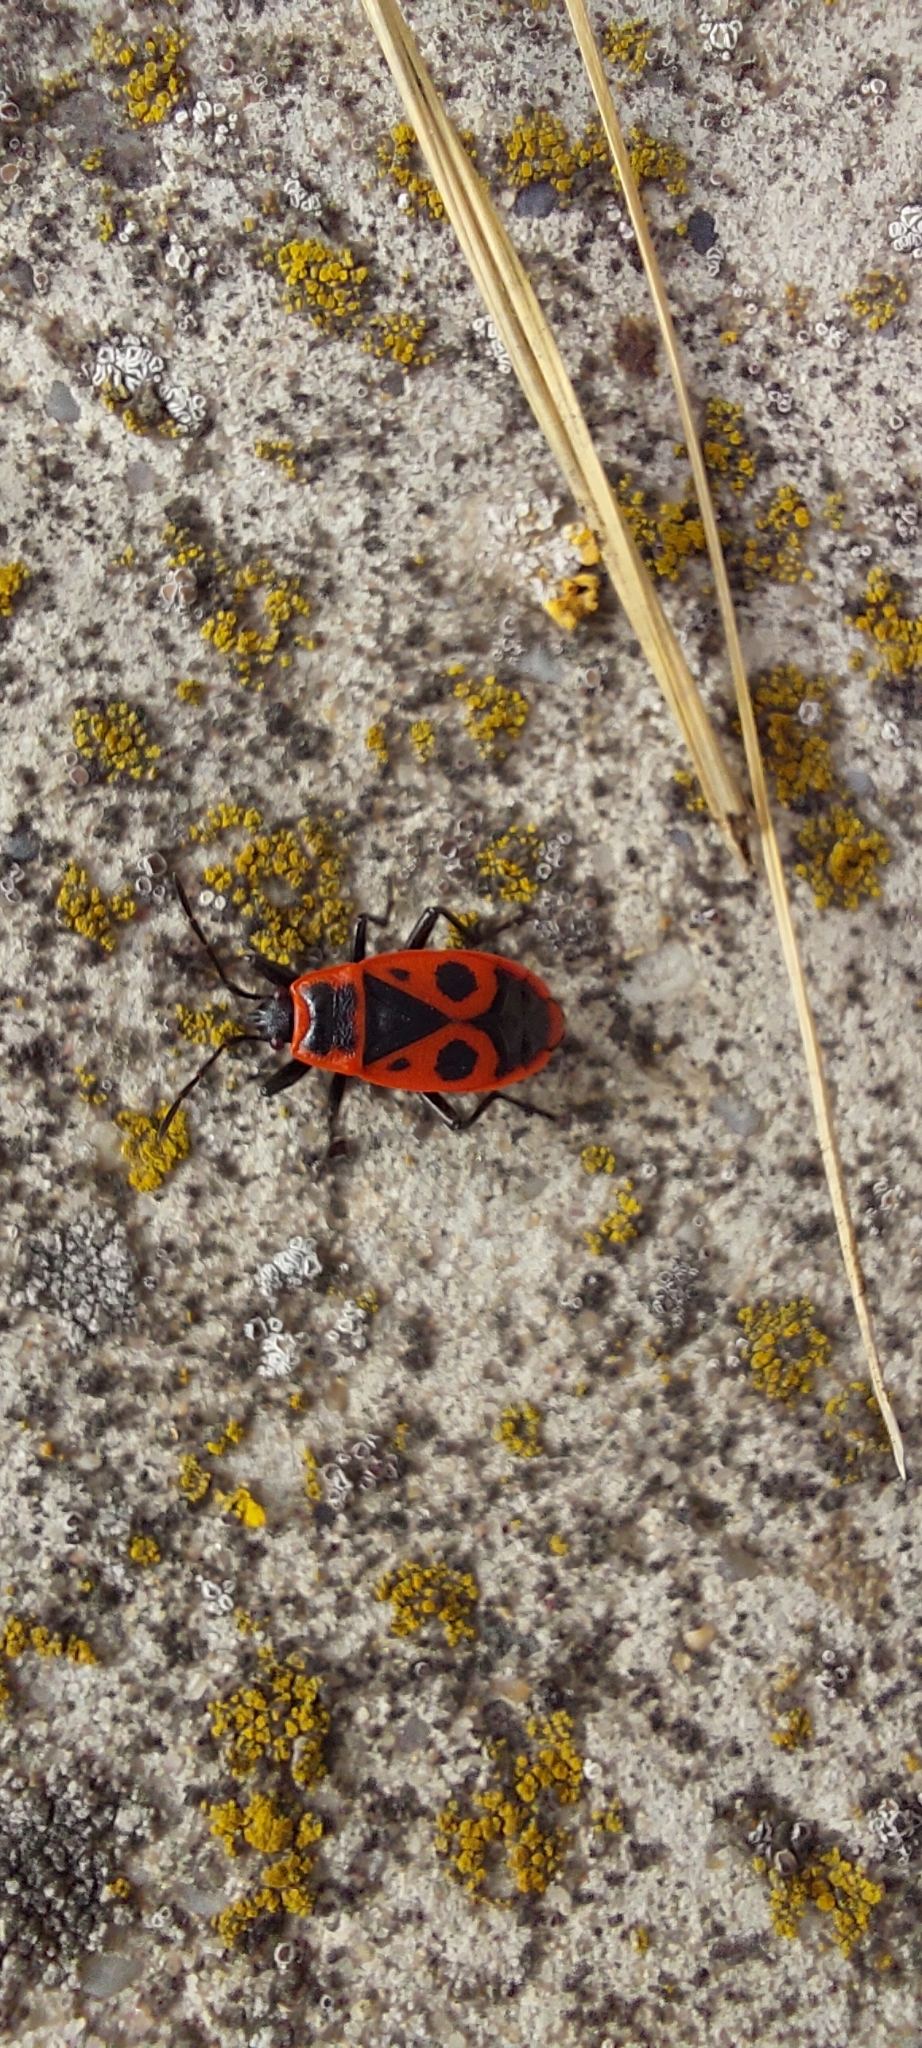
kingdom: Animalia
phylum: Arthropoda
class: Insecta
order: Hemiptera
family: Pyrrhocoridae
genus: Pyrrhocoris
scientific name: Pyrrhocoris apterus
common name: Firebug
